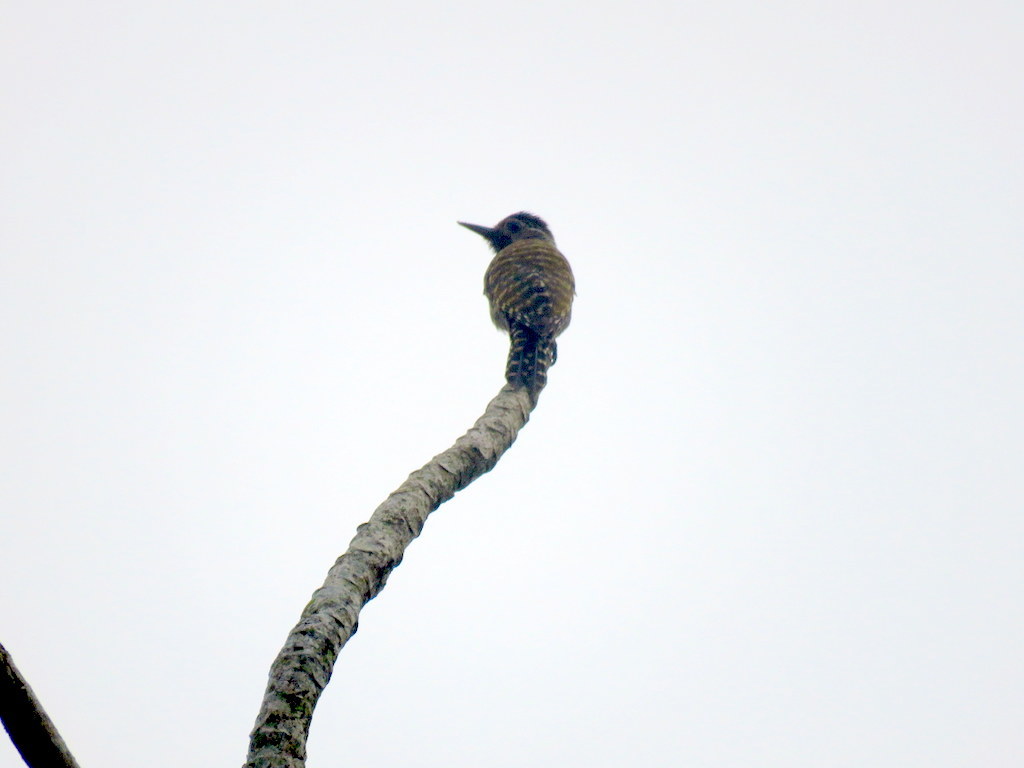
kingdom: Animalia
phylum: Chordata
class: Aves
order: Piciformes
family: Picidae
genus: Veniliornis
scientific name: Veniliornis spilogaster
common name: White-spotted woodpecker
